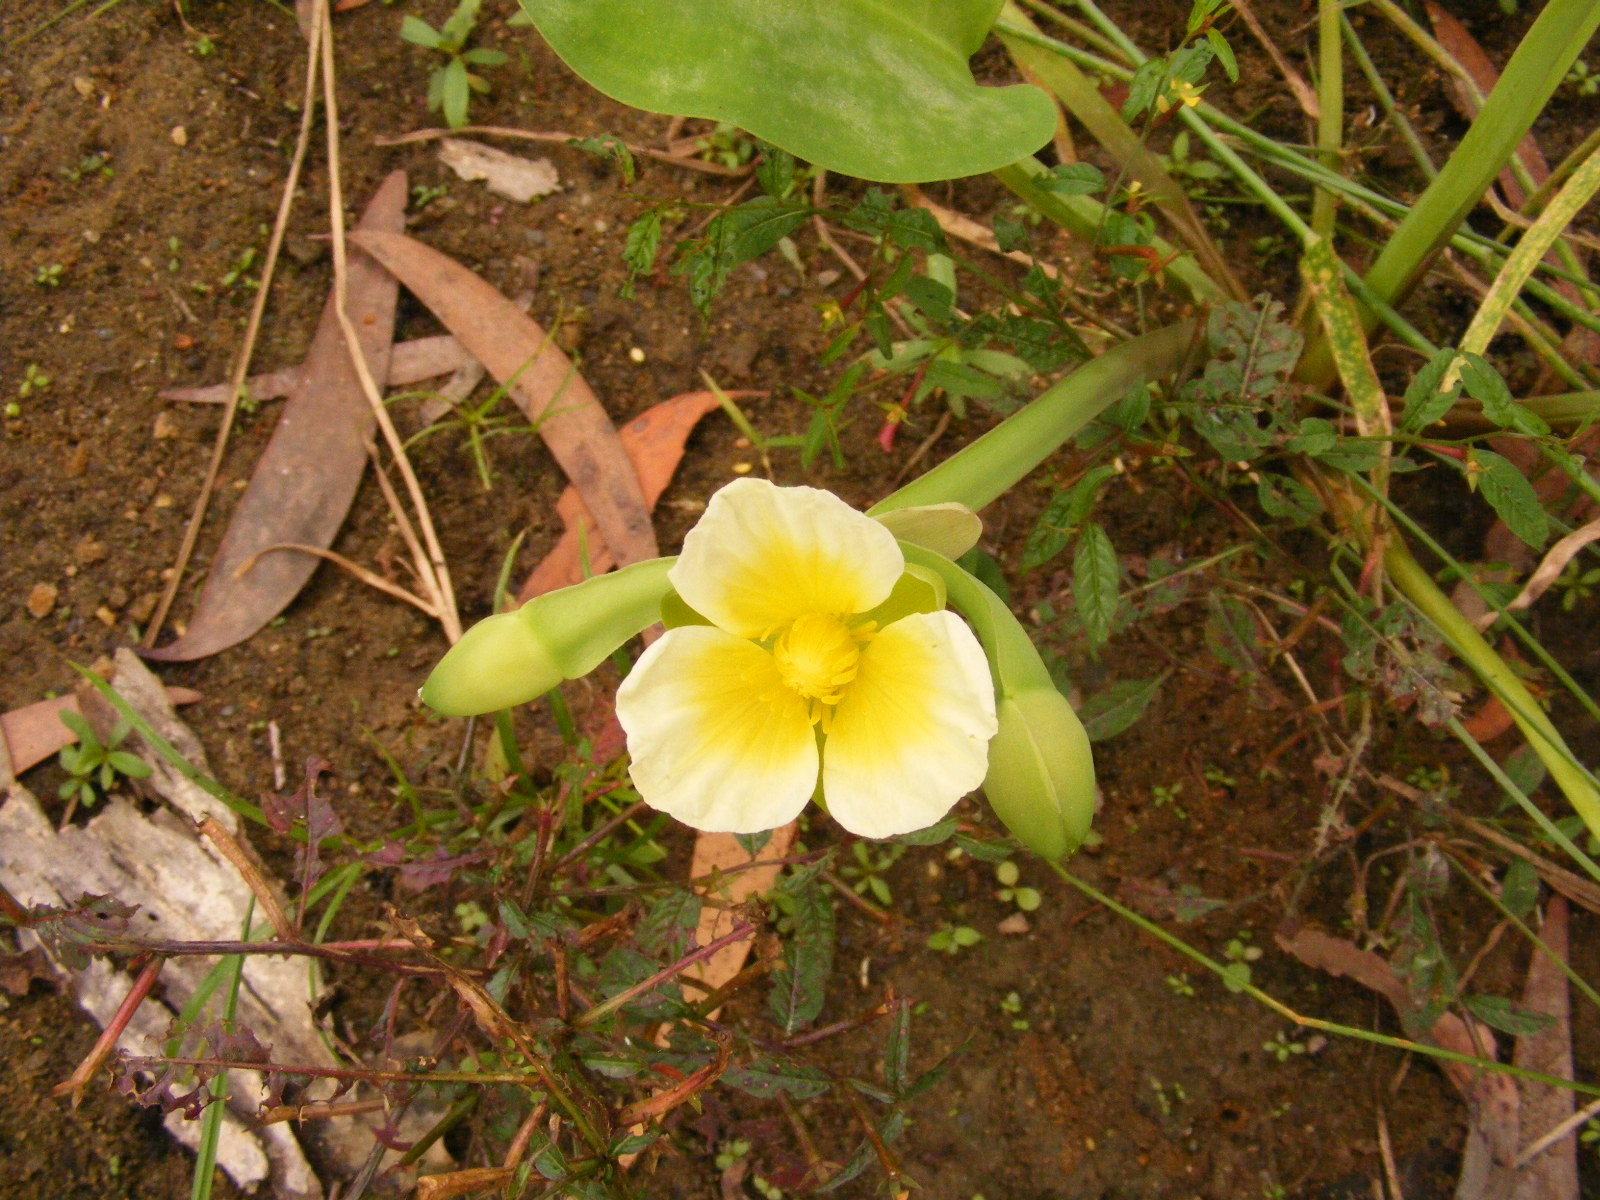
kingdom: Plantae
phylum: Tracheophyta
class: Liliopsida
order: Alismatales
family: Alismataceae
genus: Limnocharis
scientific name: Limnocharis flava
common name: Sawah-flower-rush
